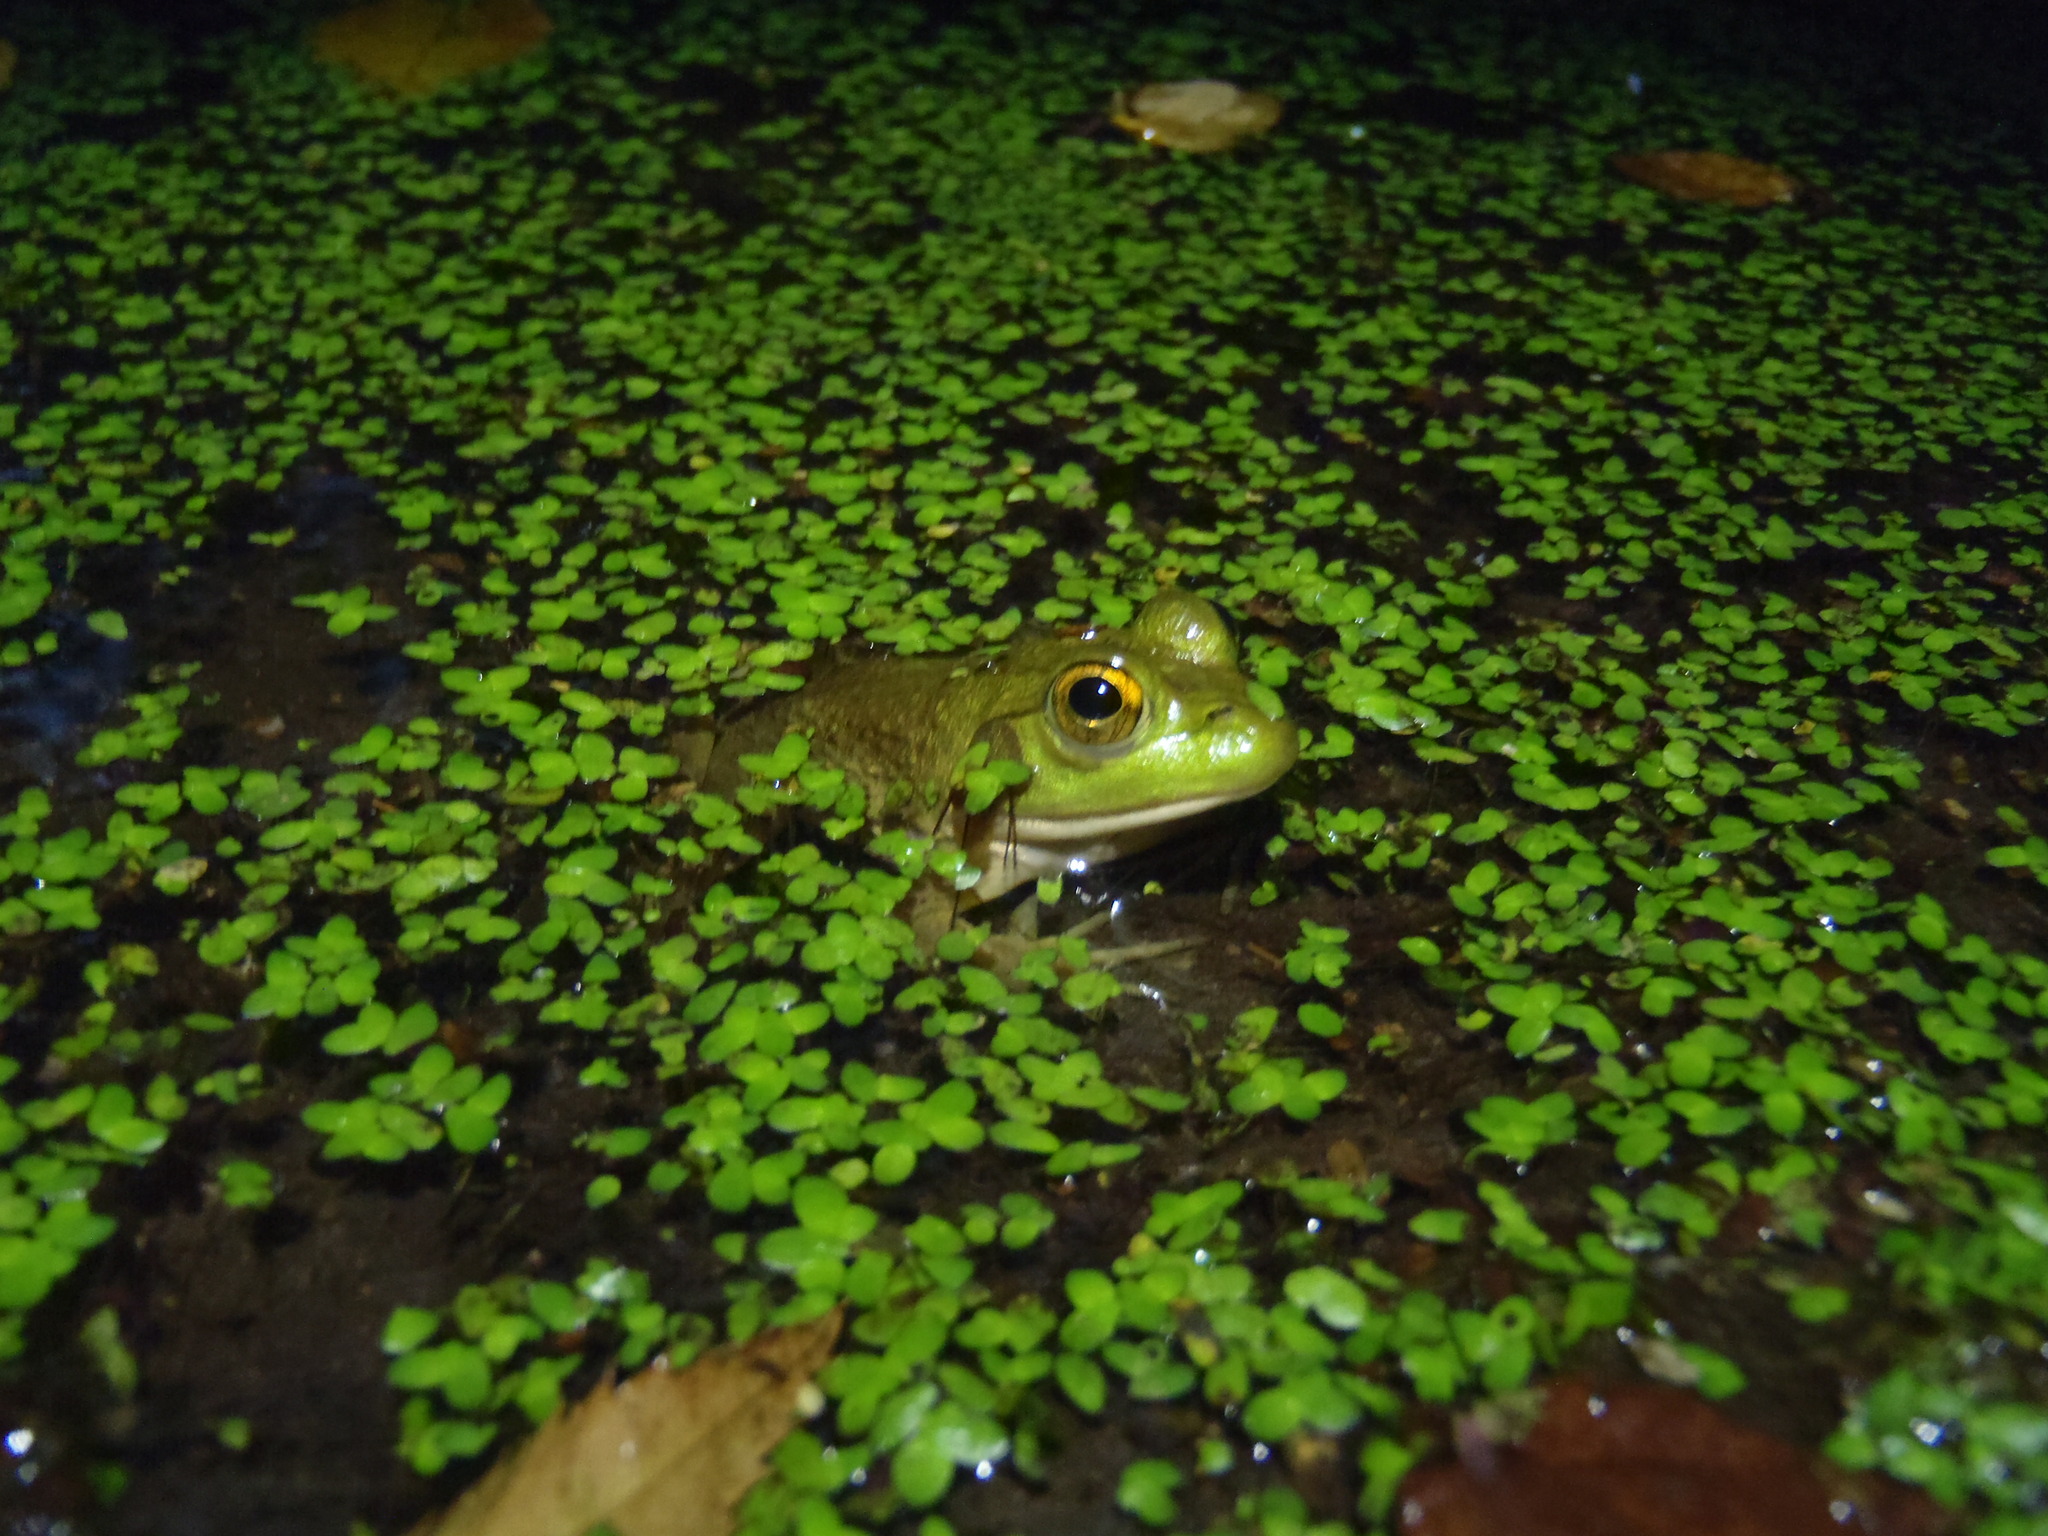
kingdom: Animalia
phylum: Chordata
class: Amphibia
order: Anura
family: Ranidae
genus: Lithobates
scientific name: Lithobates catesbeianus
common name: American bullfrog
